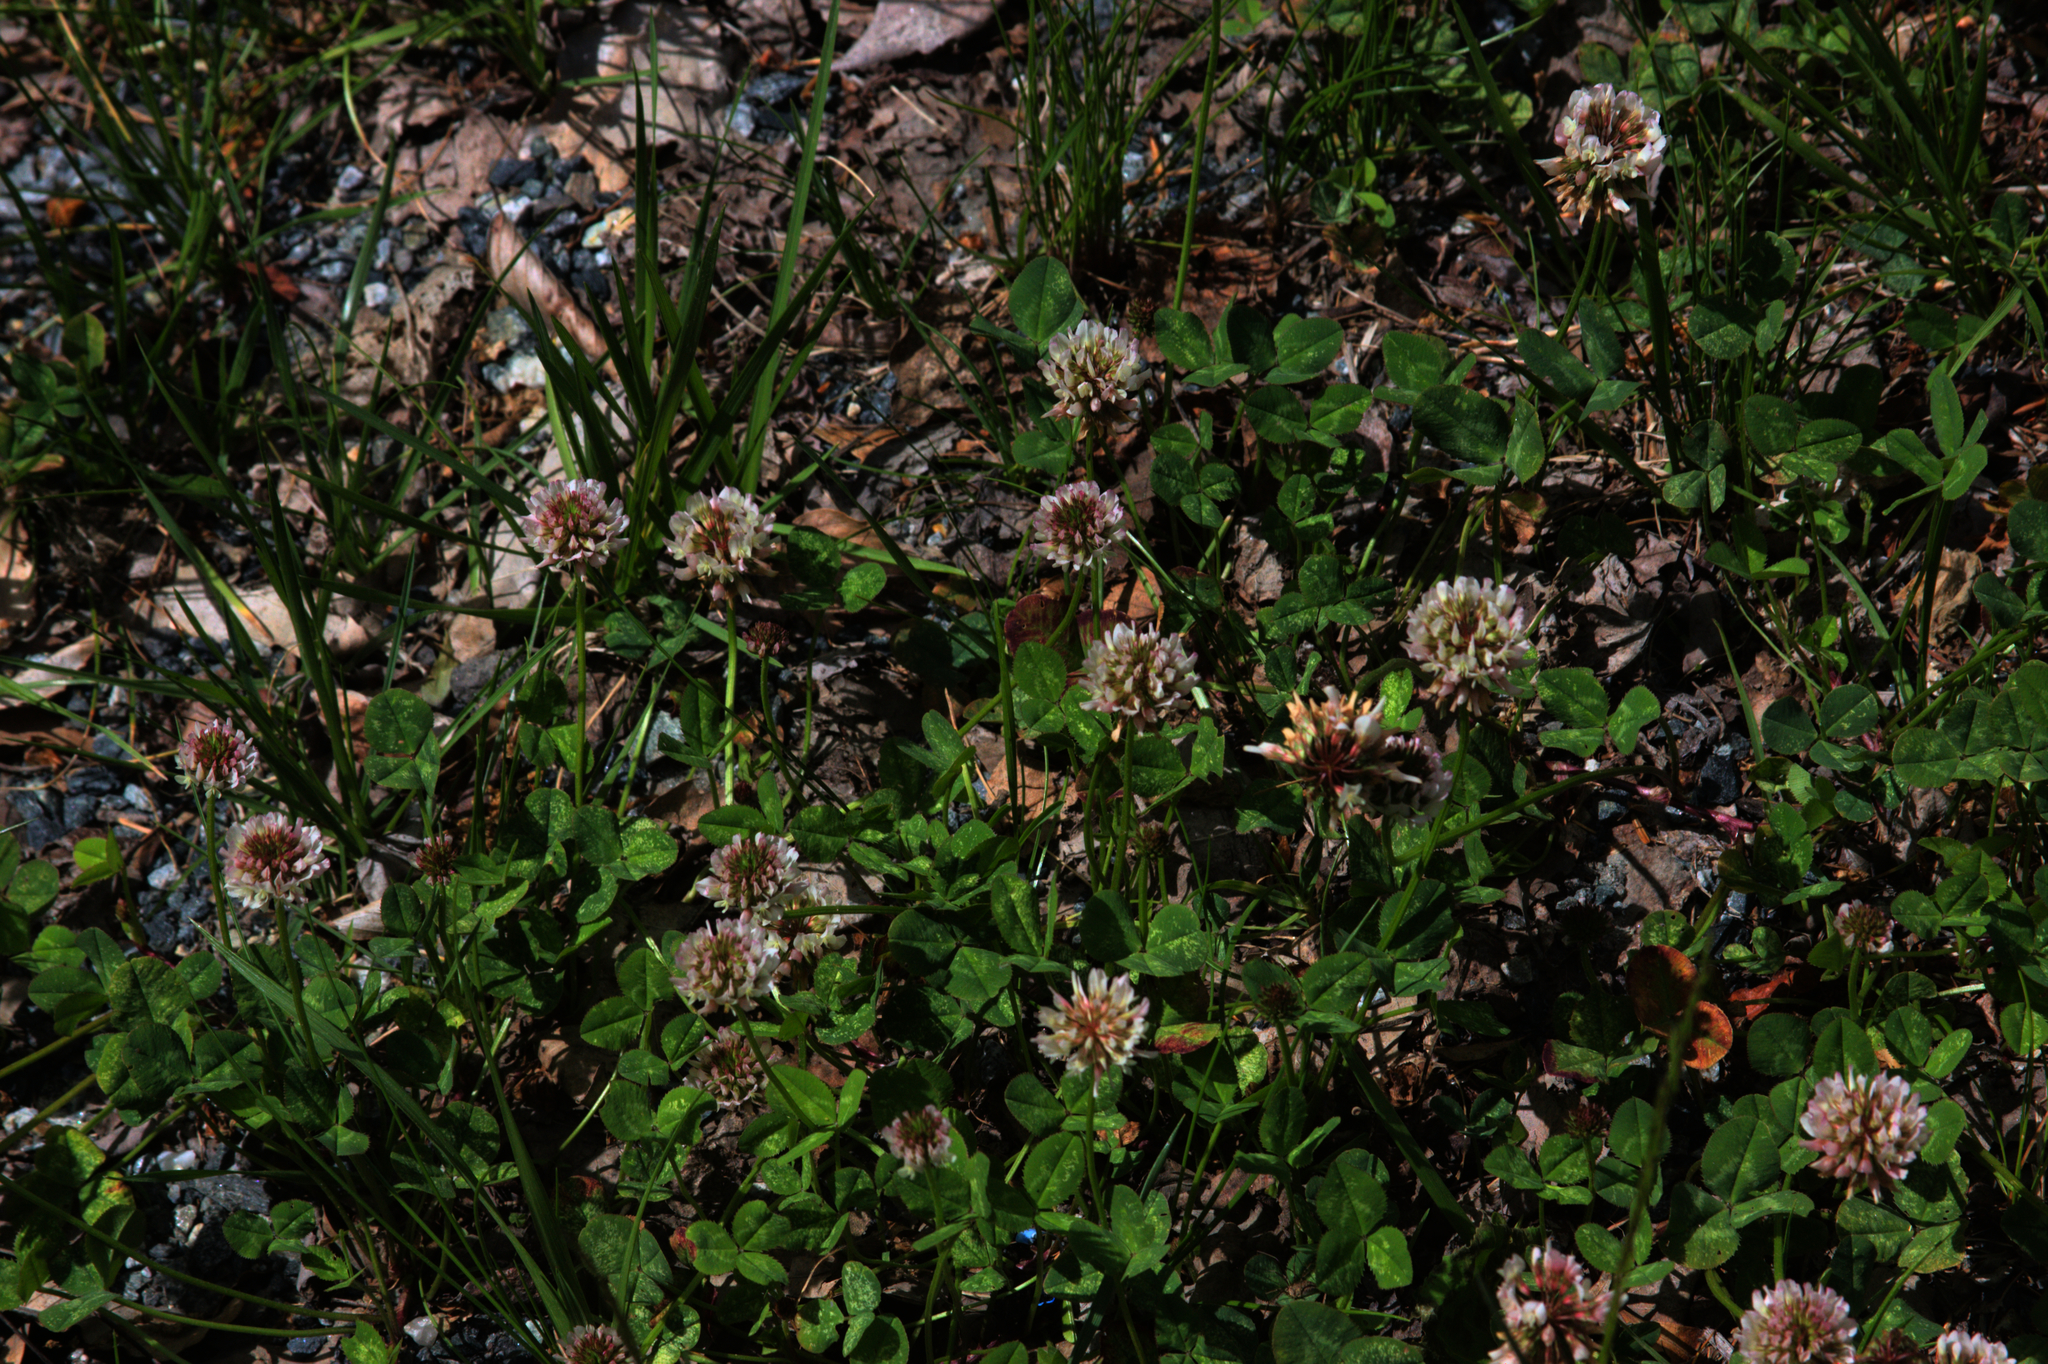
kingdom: Plantae
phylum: Tracheophyta
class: Magnoliopsida
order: Fabales
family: Fabaceae
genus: Trifolium
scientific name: Trifolium repens
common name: White clover
